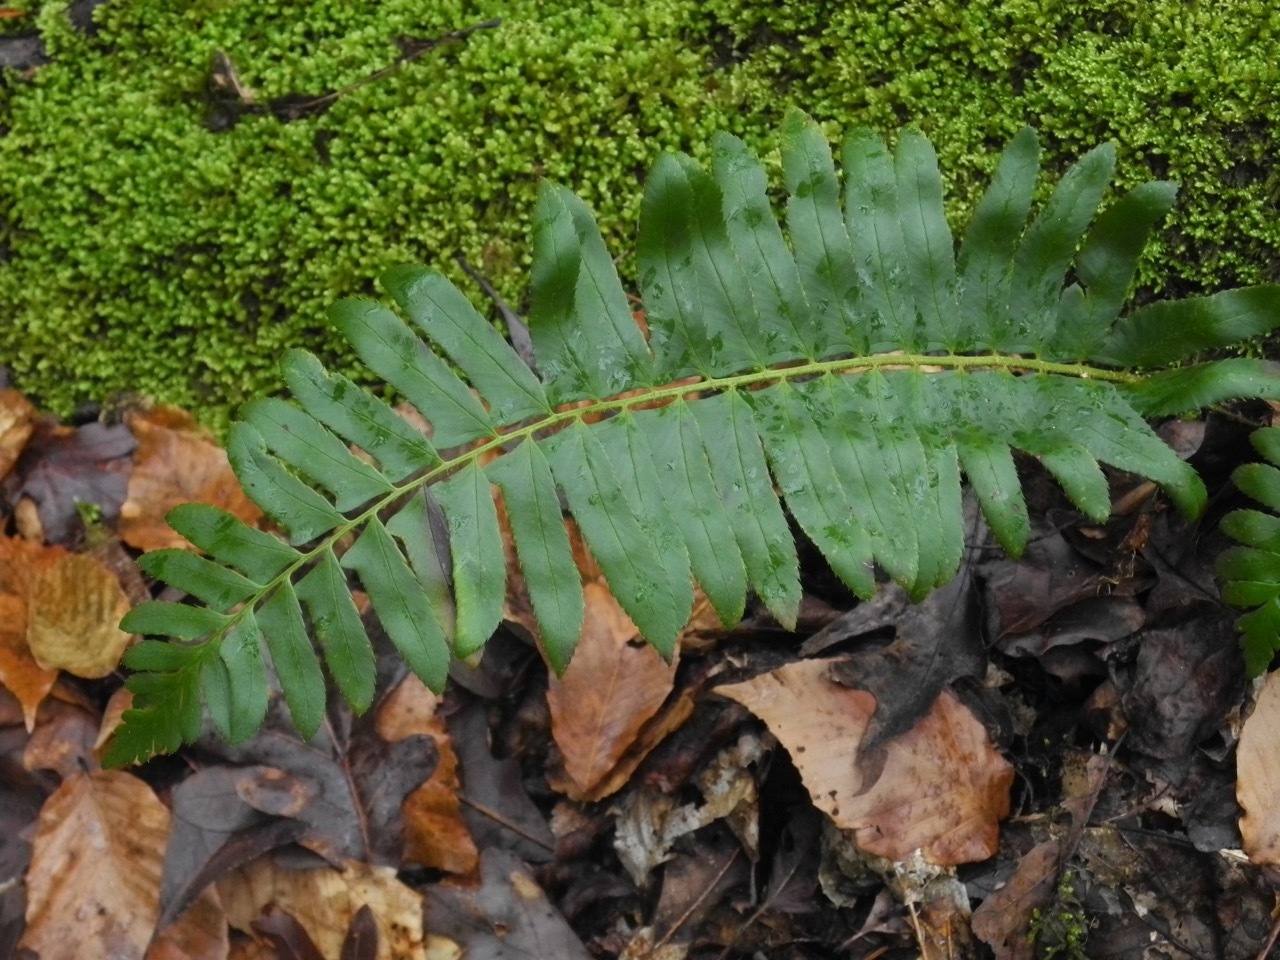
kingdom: Plantae
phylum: Tracheophyta
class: Polypodiopsida
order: Polypodiales
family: Dryopteridaceae
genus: Polystichum
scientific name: Polystichum acrostichoides
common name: Christmas fern
